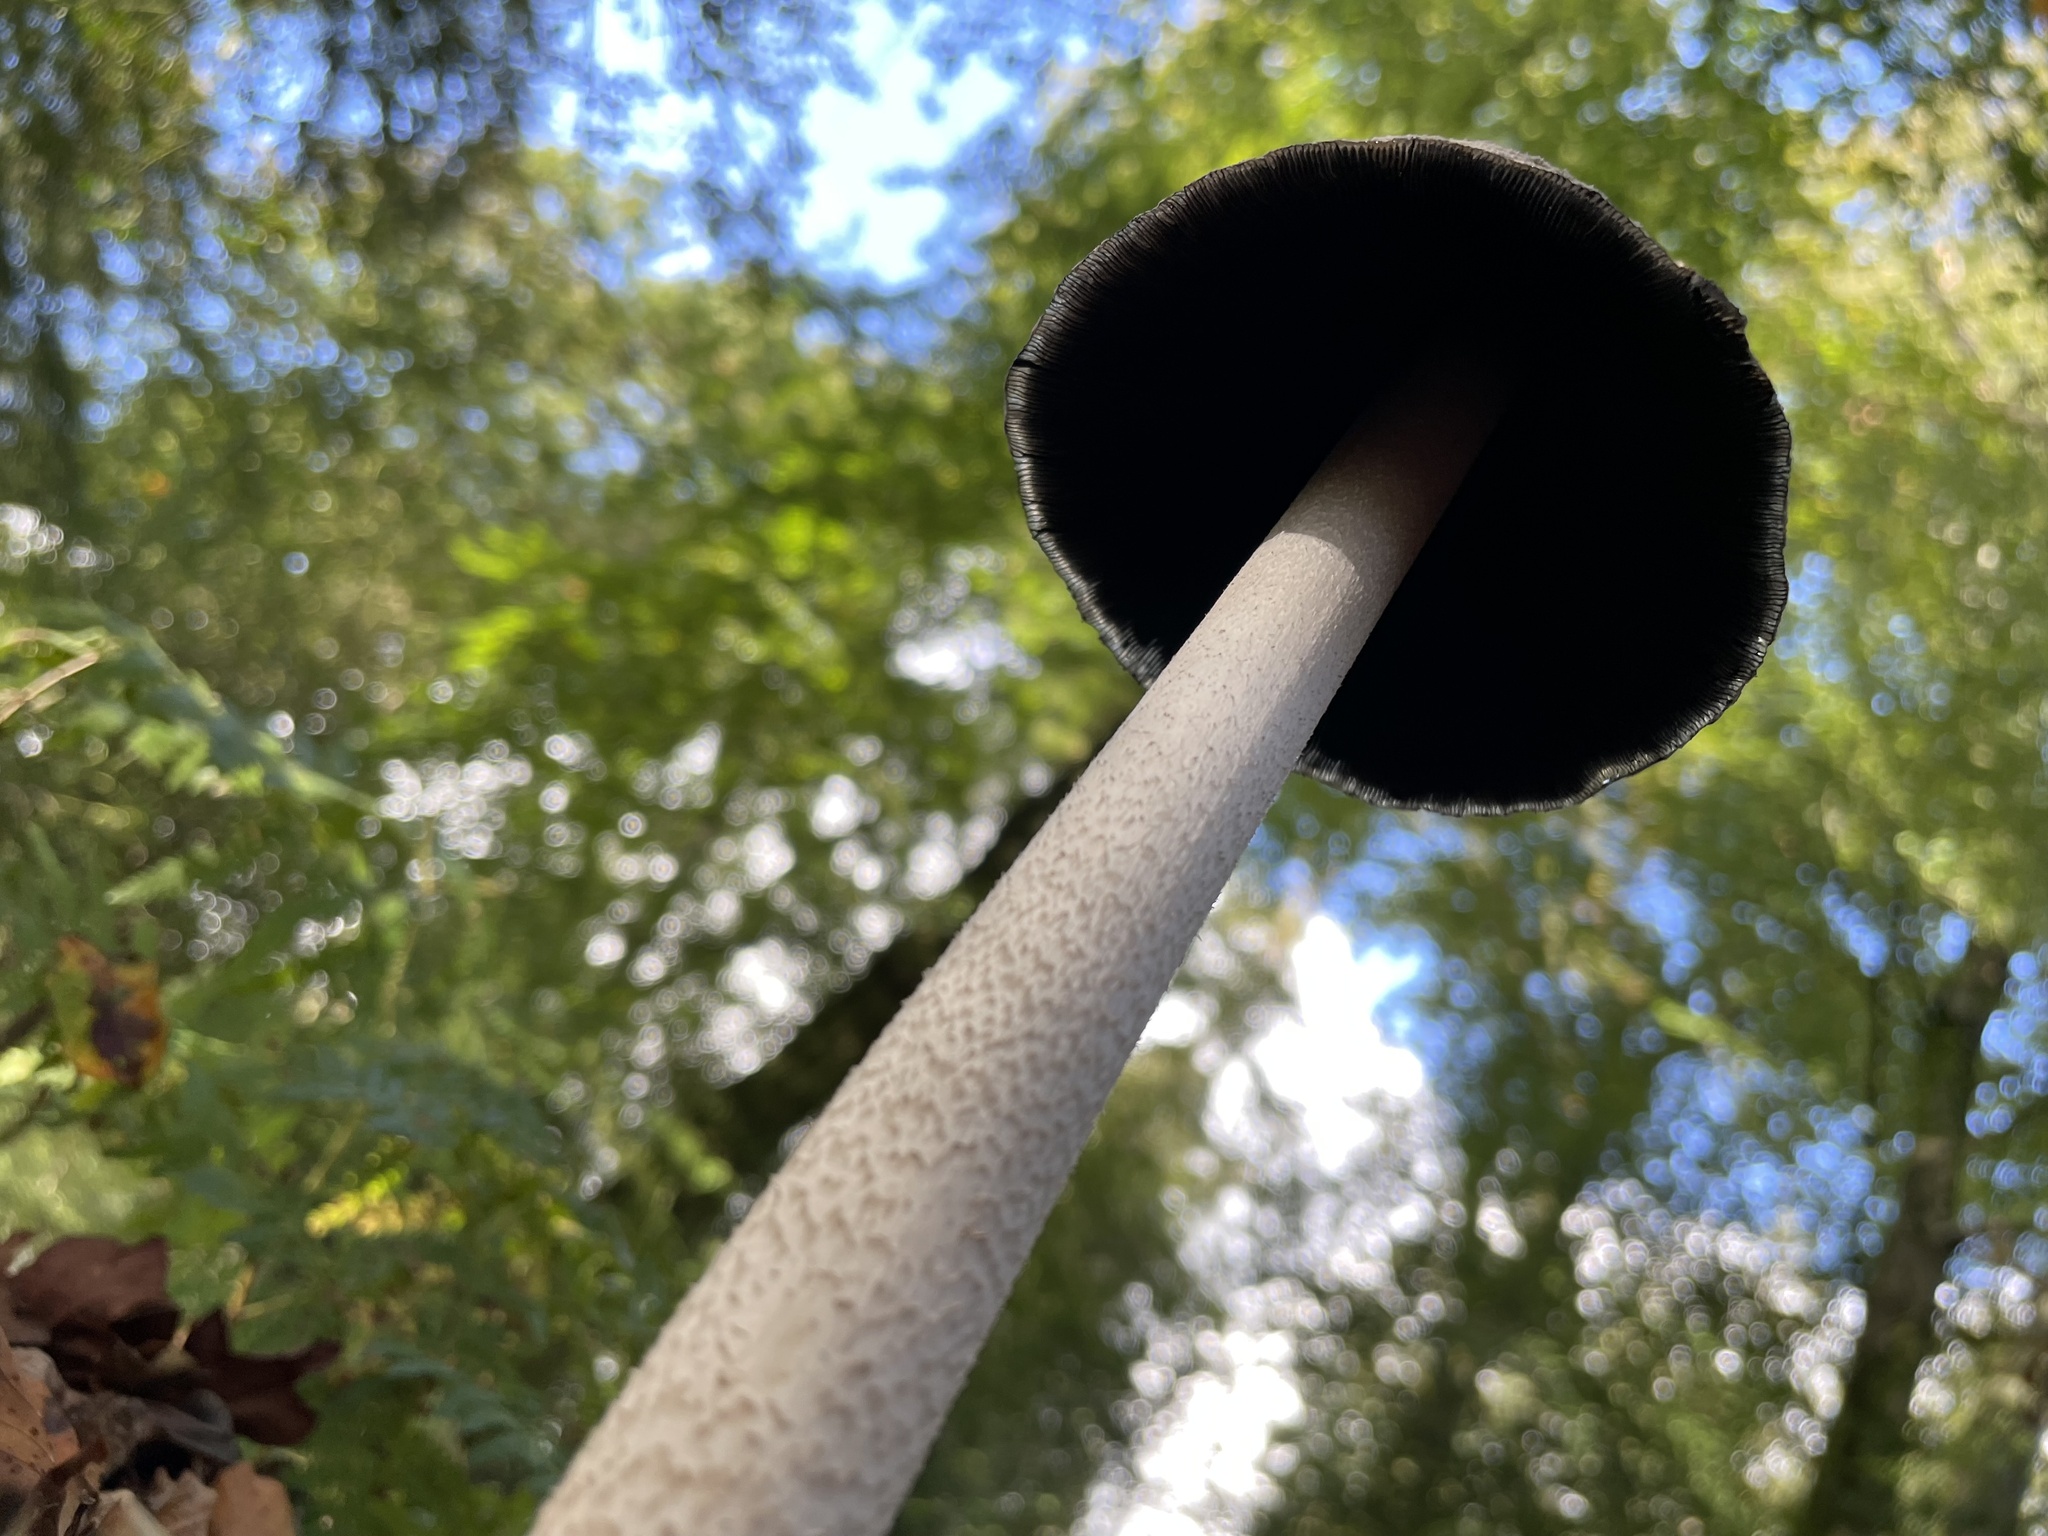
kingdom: Fungi
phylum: Basidiomycota
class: Agaricomycetes
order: Agaricales
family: Psathyrellaceae
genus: Coprinopsis
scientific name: Coprinopsis picacea
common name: Magpie inkcap
